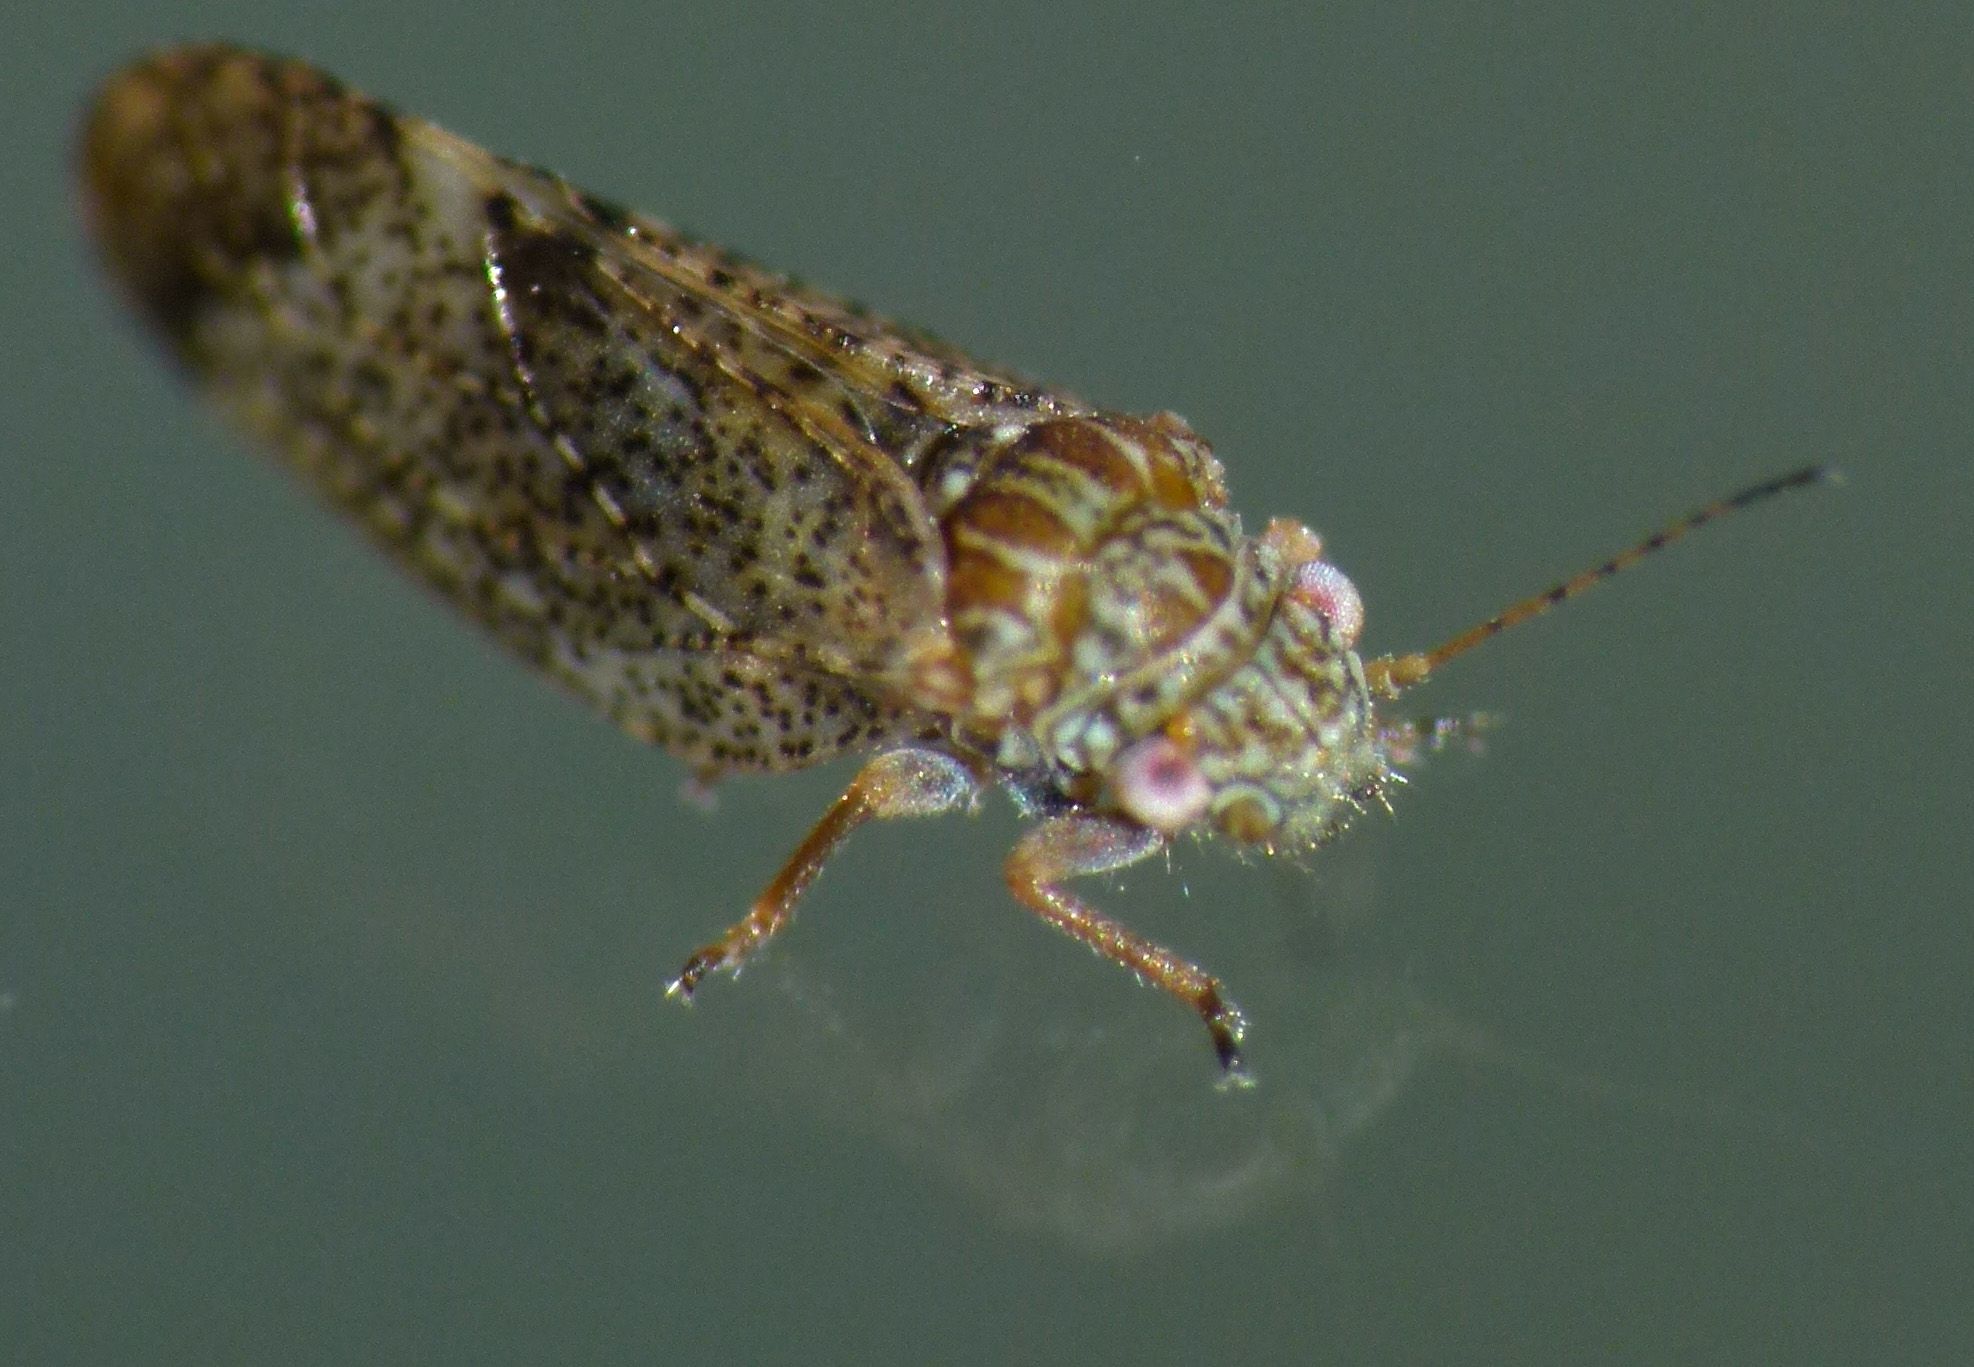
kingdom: Animalia
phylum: Arthropoda
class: Insecta
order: Hemiptera
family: Psyllidae
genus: Acizzia
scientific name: Acizzia apicalis
